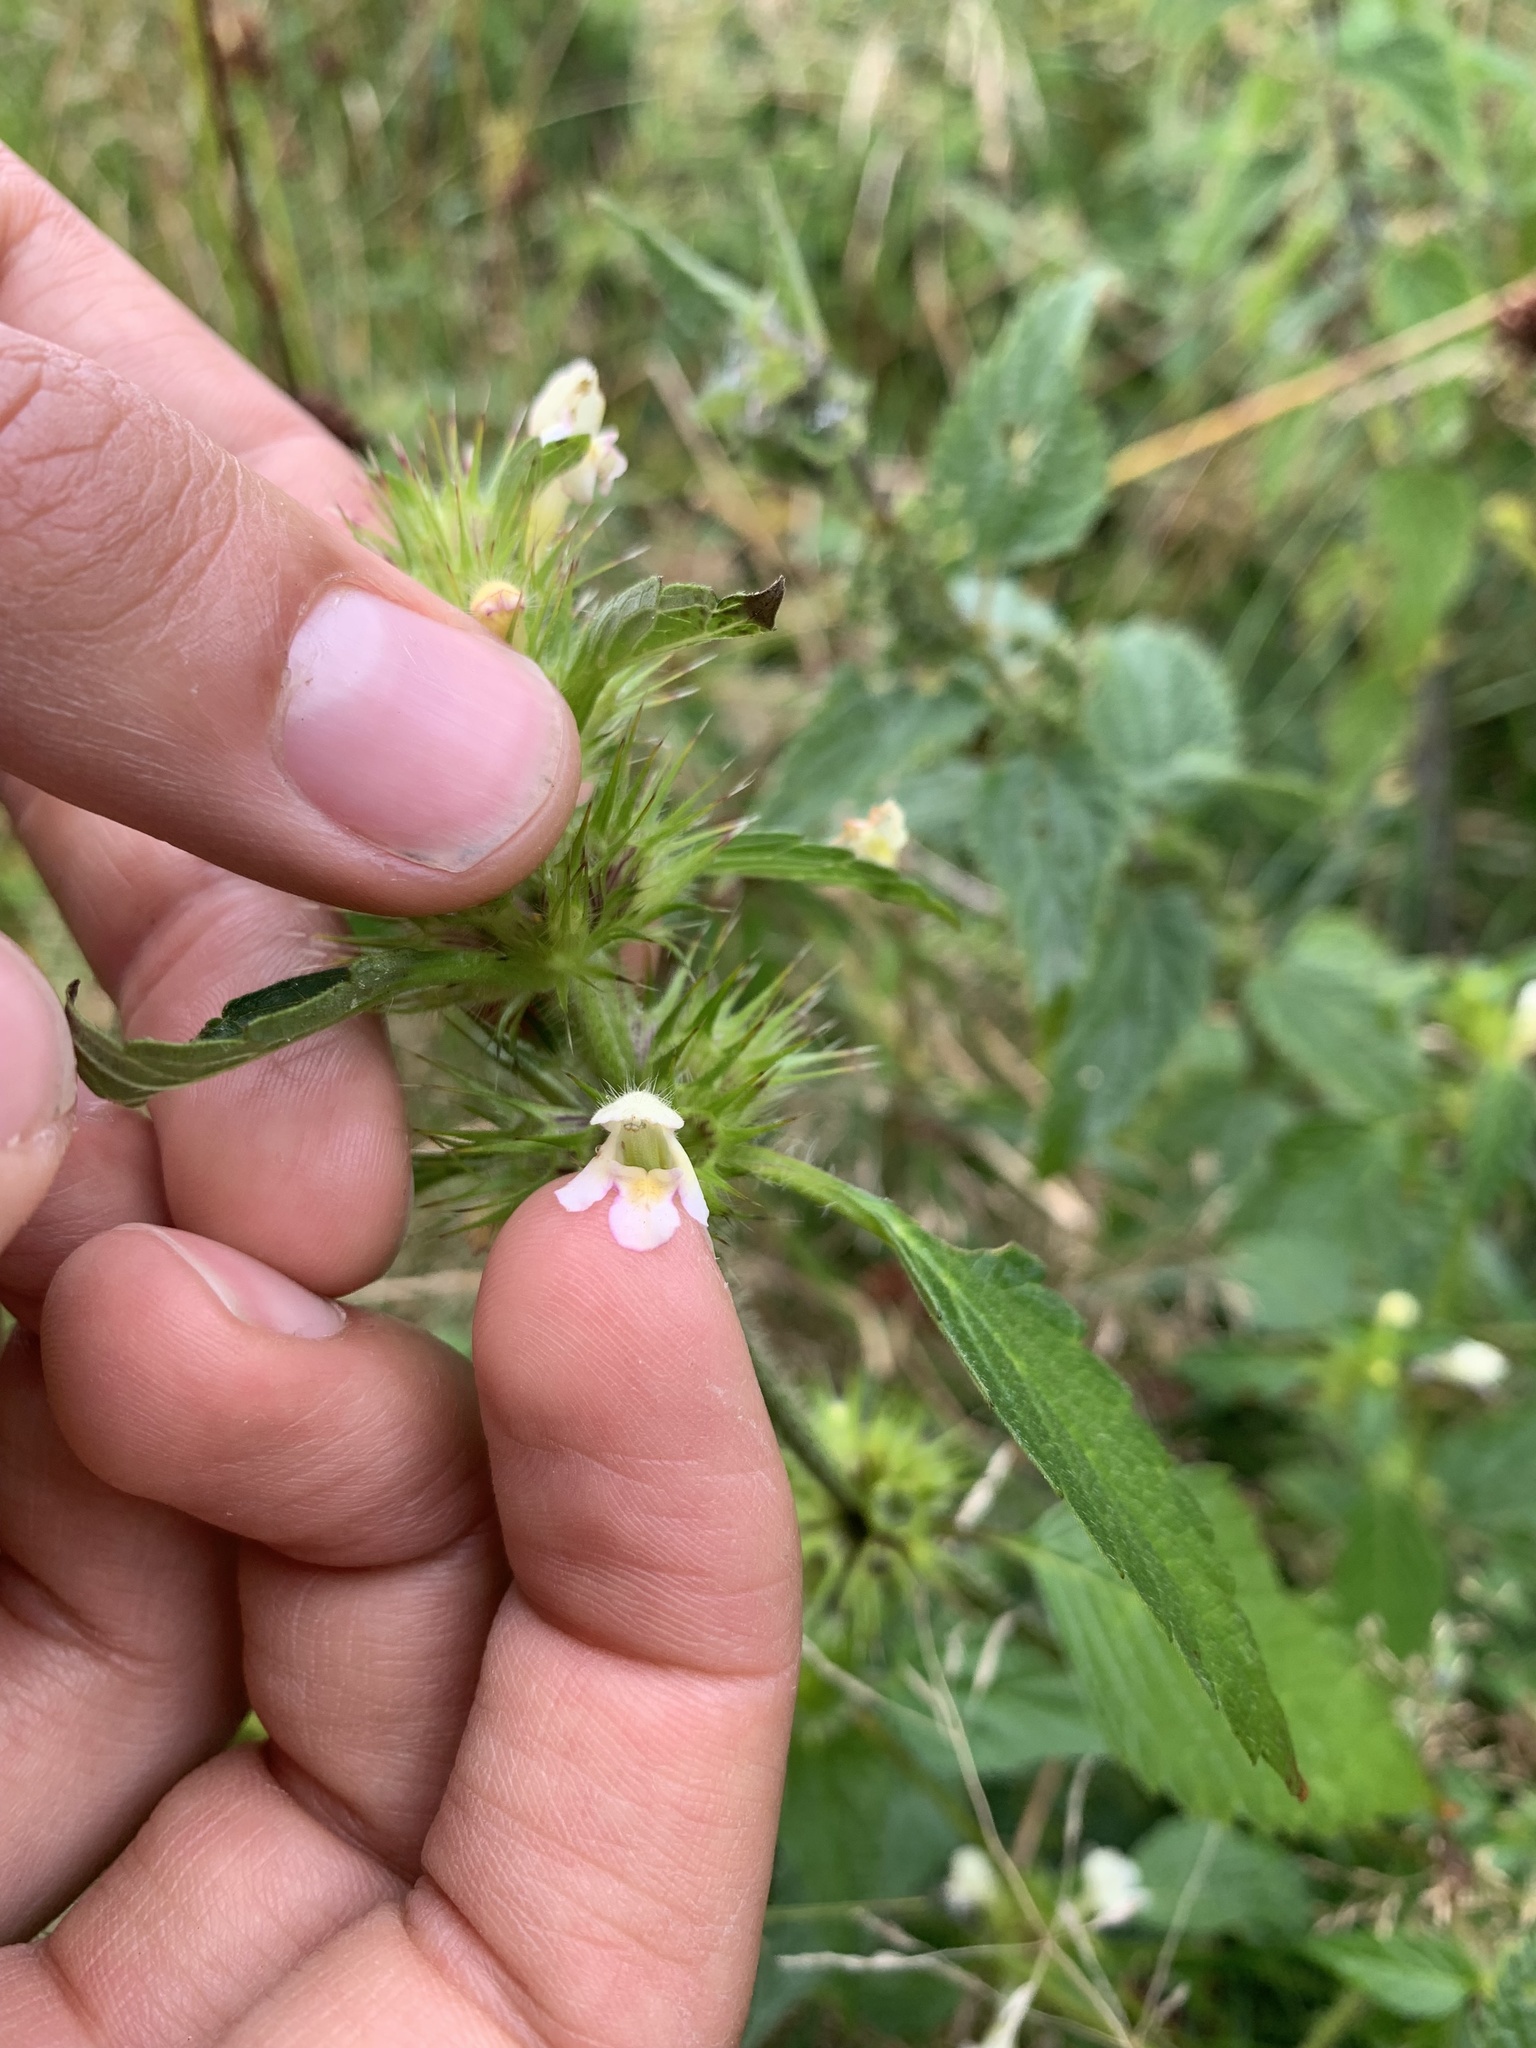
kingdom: Plantae
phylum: Tracheophyta
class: Magnoliopsida
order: Lamiales
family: Lamiaceae
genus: Galeopsis
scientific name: Galeopsis tetrahit
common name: Common hemp-nettle
